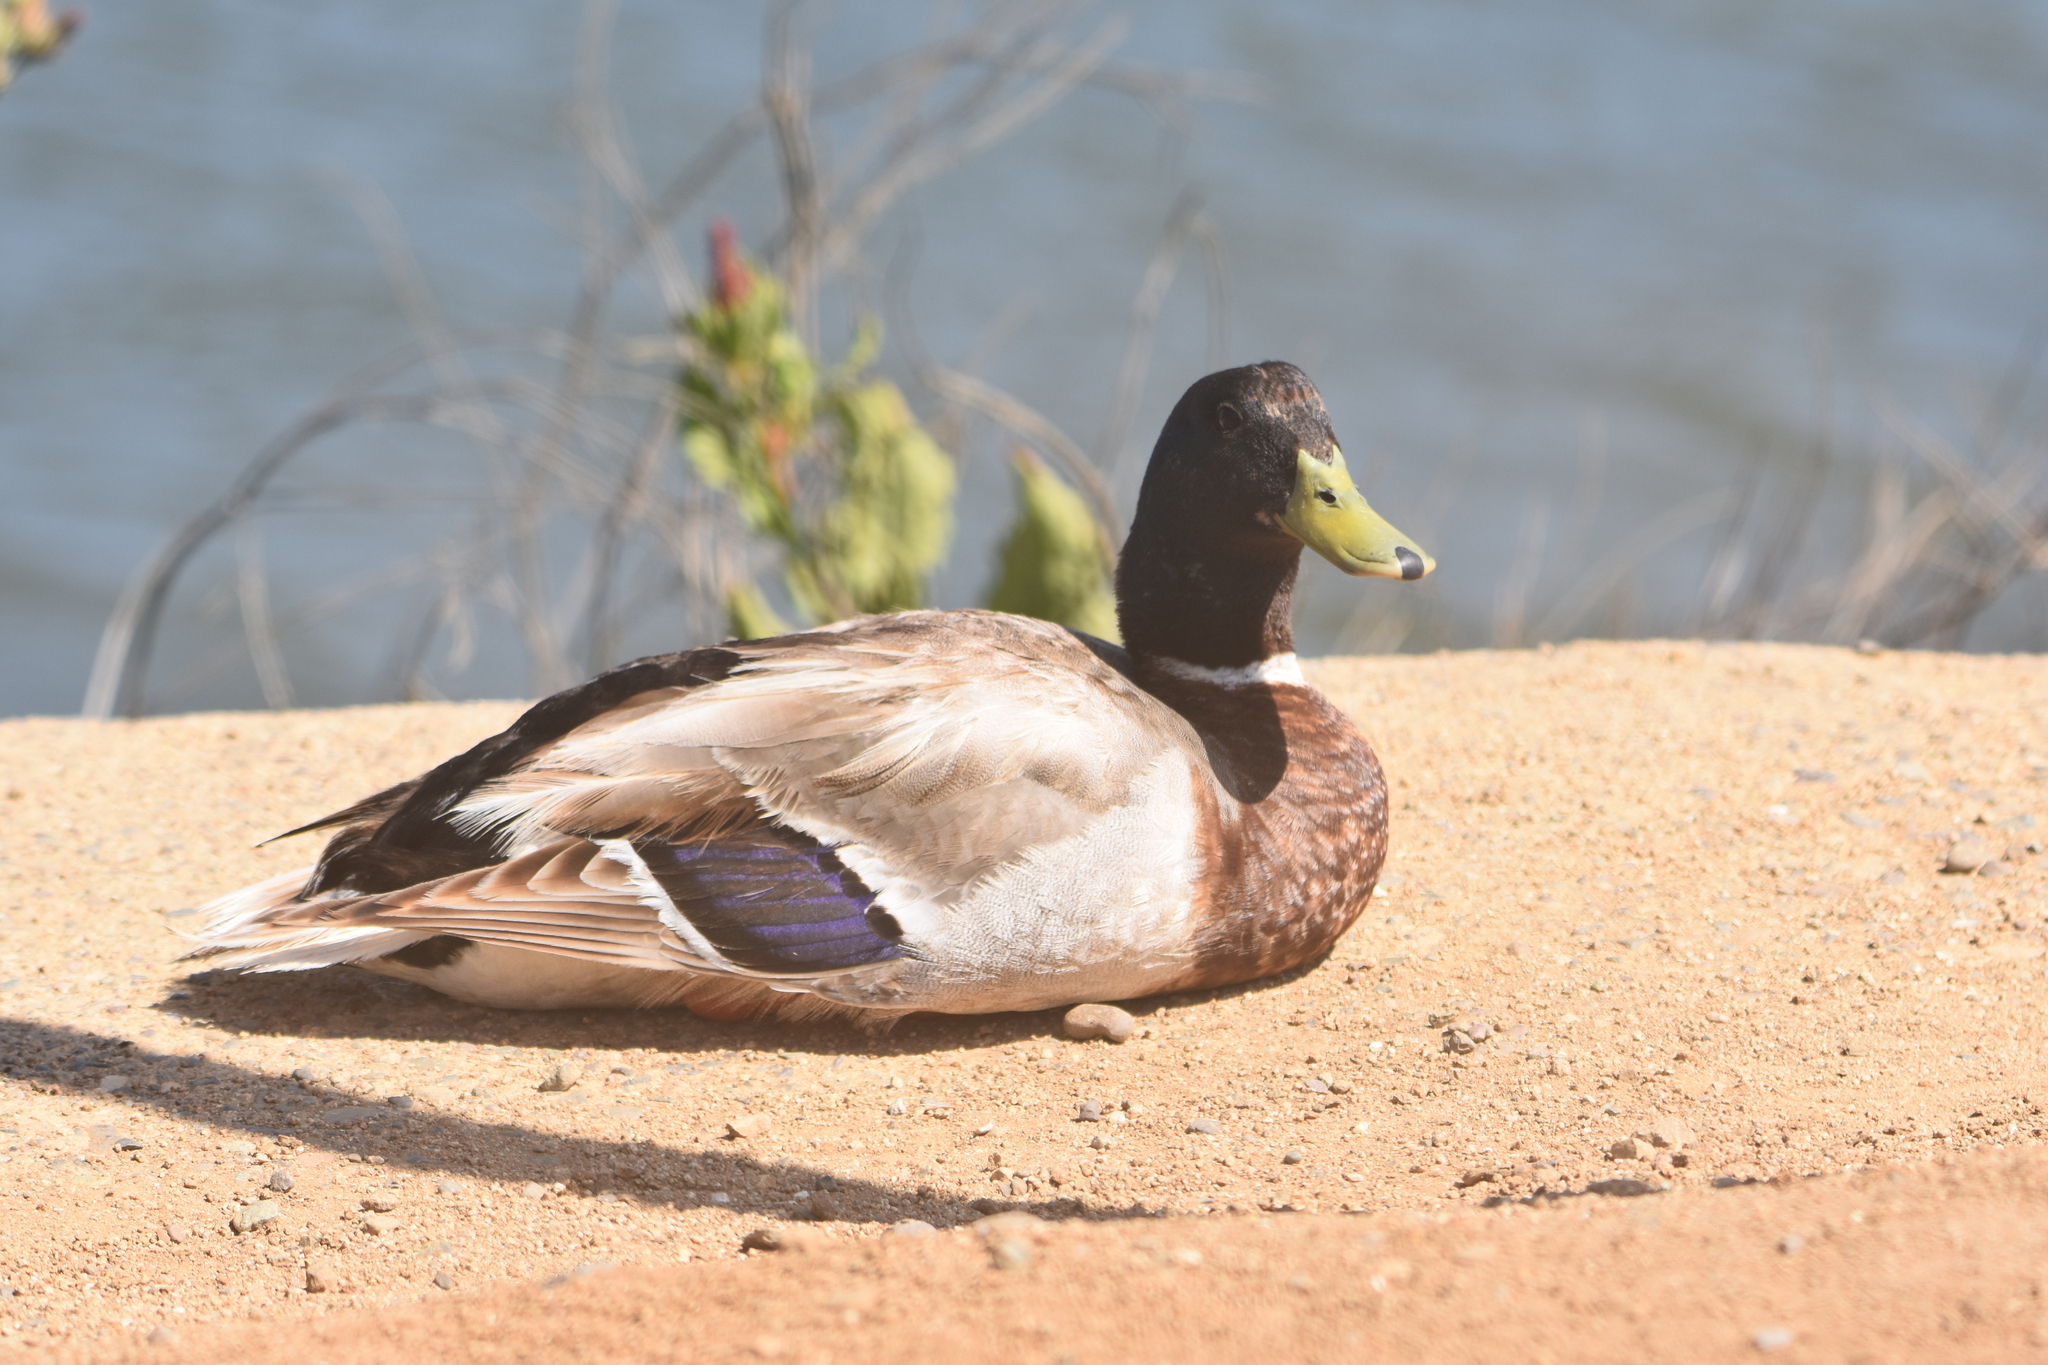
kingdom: Animalia
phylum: Chordata
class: Aves
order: Anseriformes
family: Anatidae
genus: Anas
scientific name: Anas platyrhynchos
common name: Mallard
